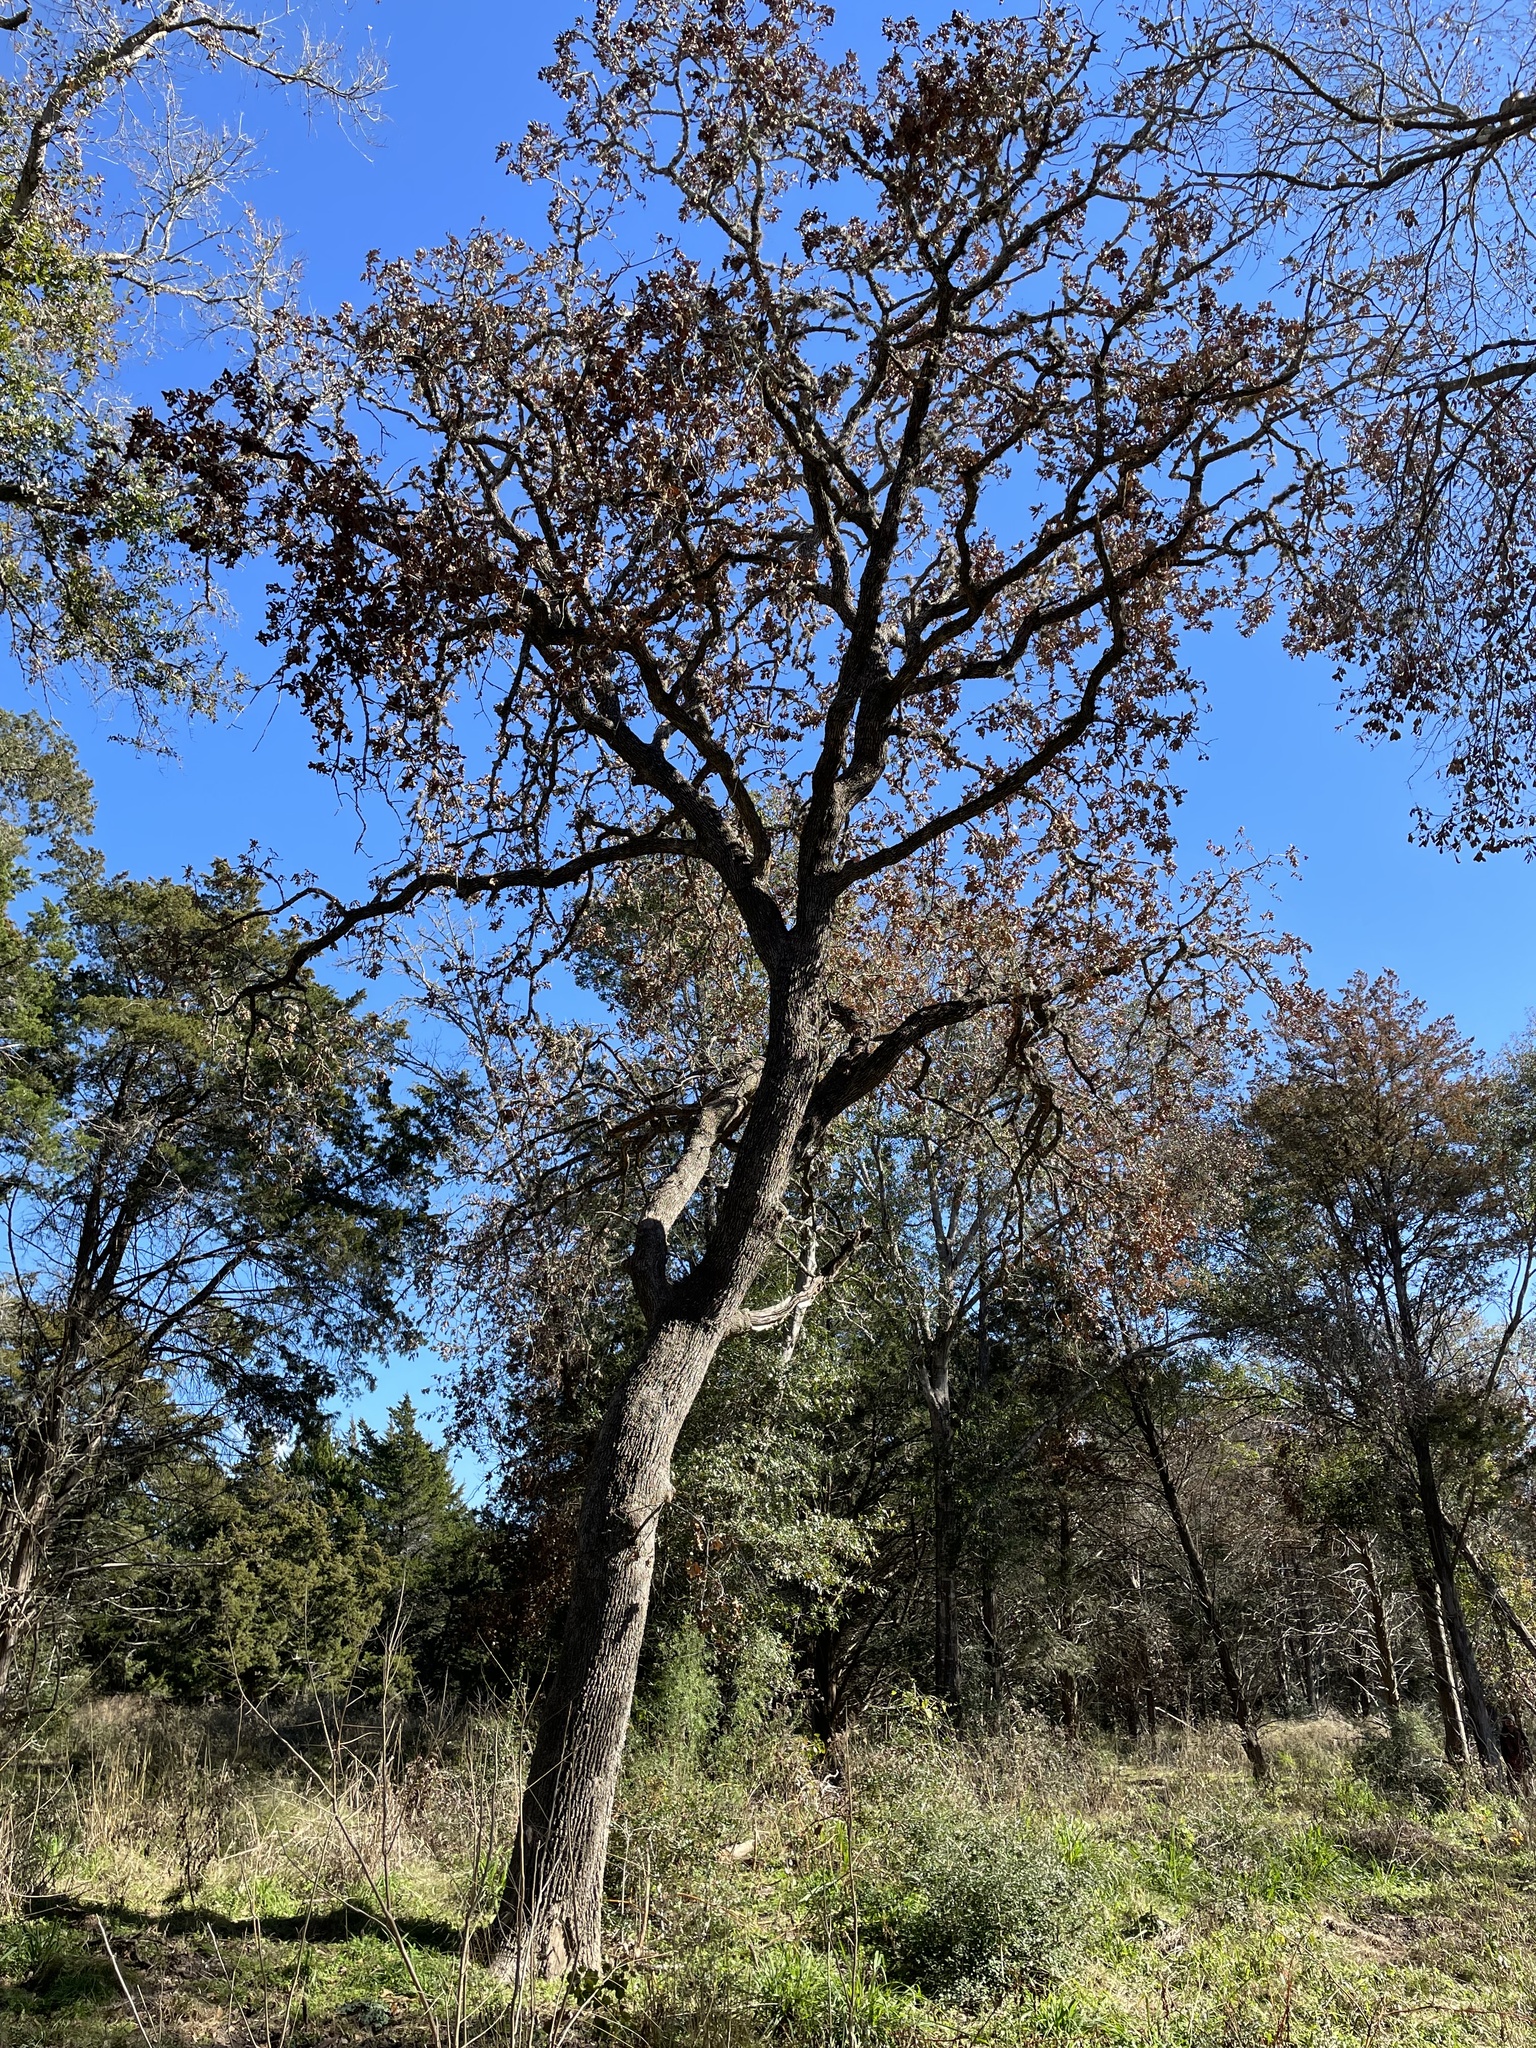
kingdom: Plantae
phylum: Tracheophyta
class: Magnoliopsida
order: Fagales
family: Fagaceae
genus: Quercus
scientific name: Quercus stellata
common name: Post oak
